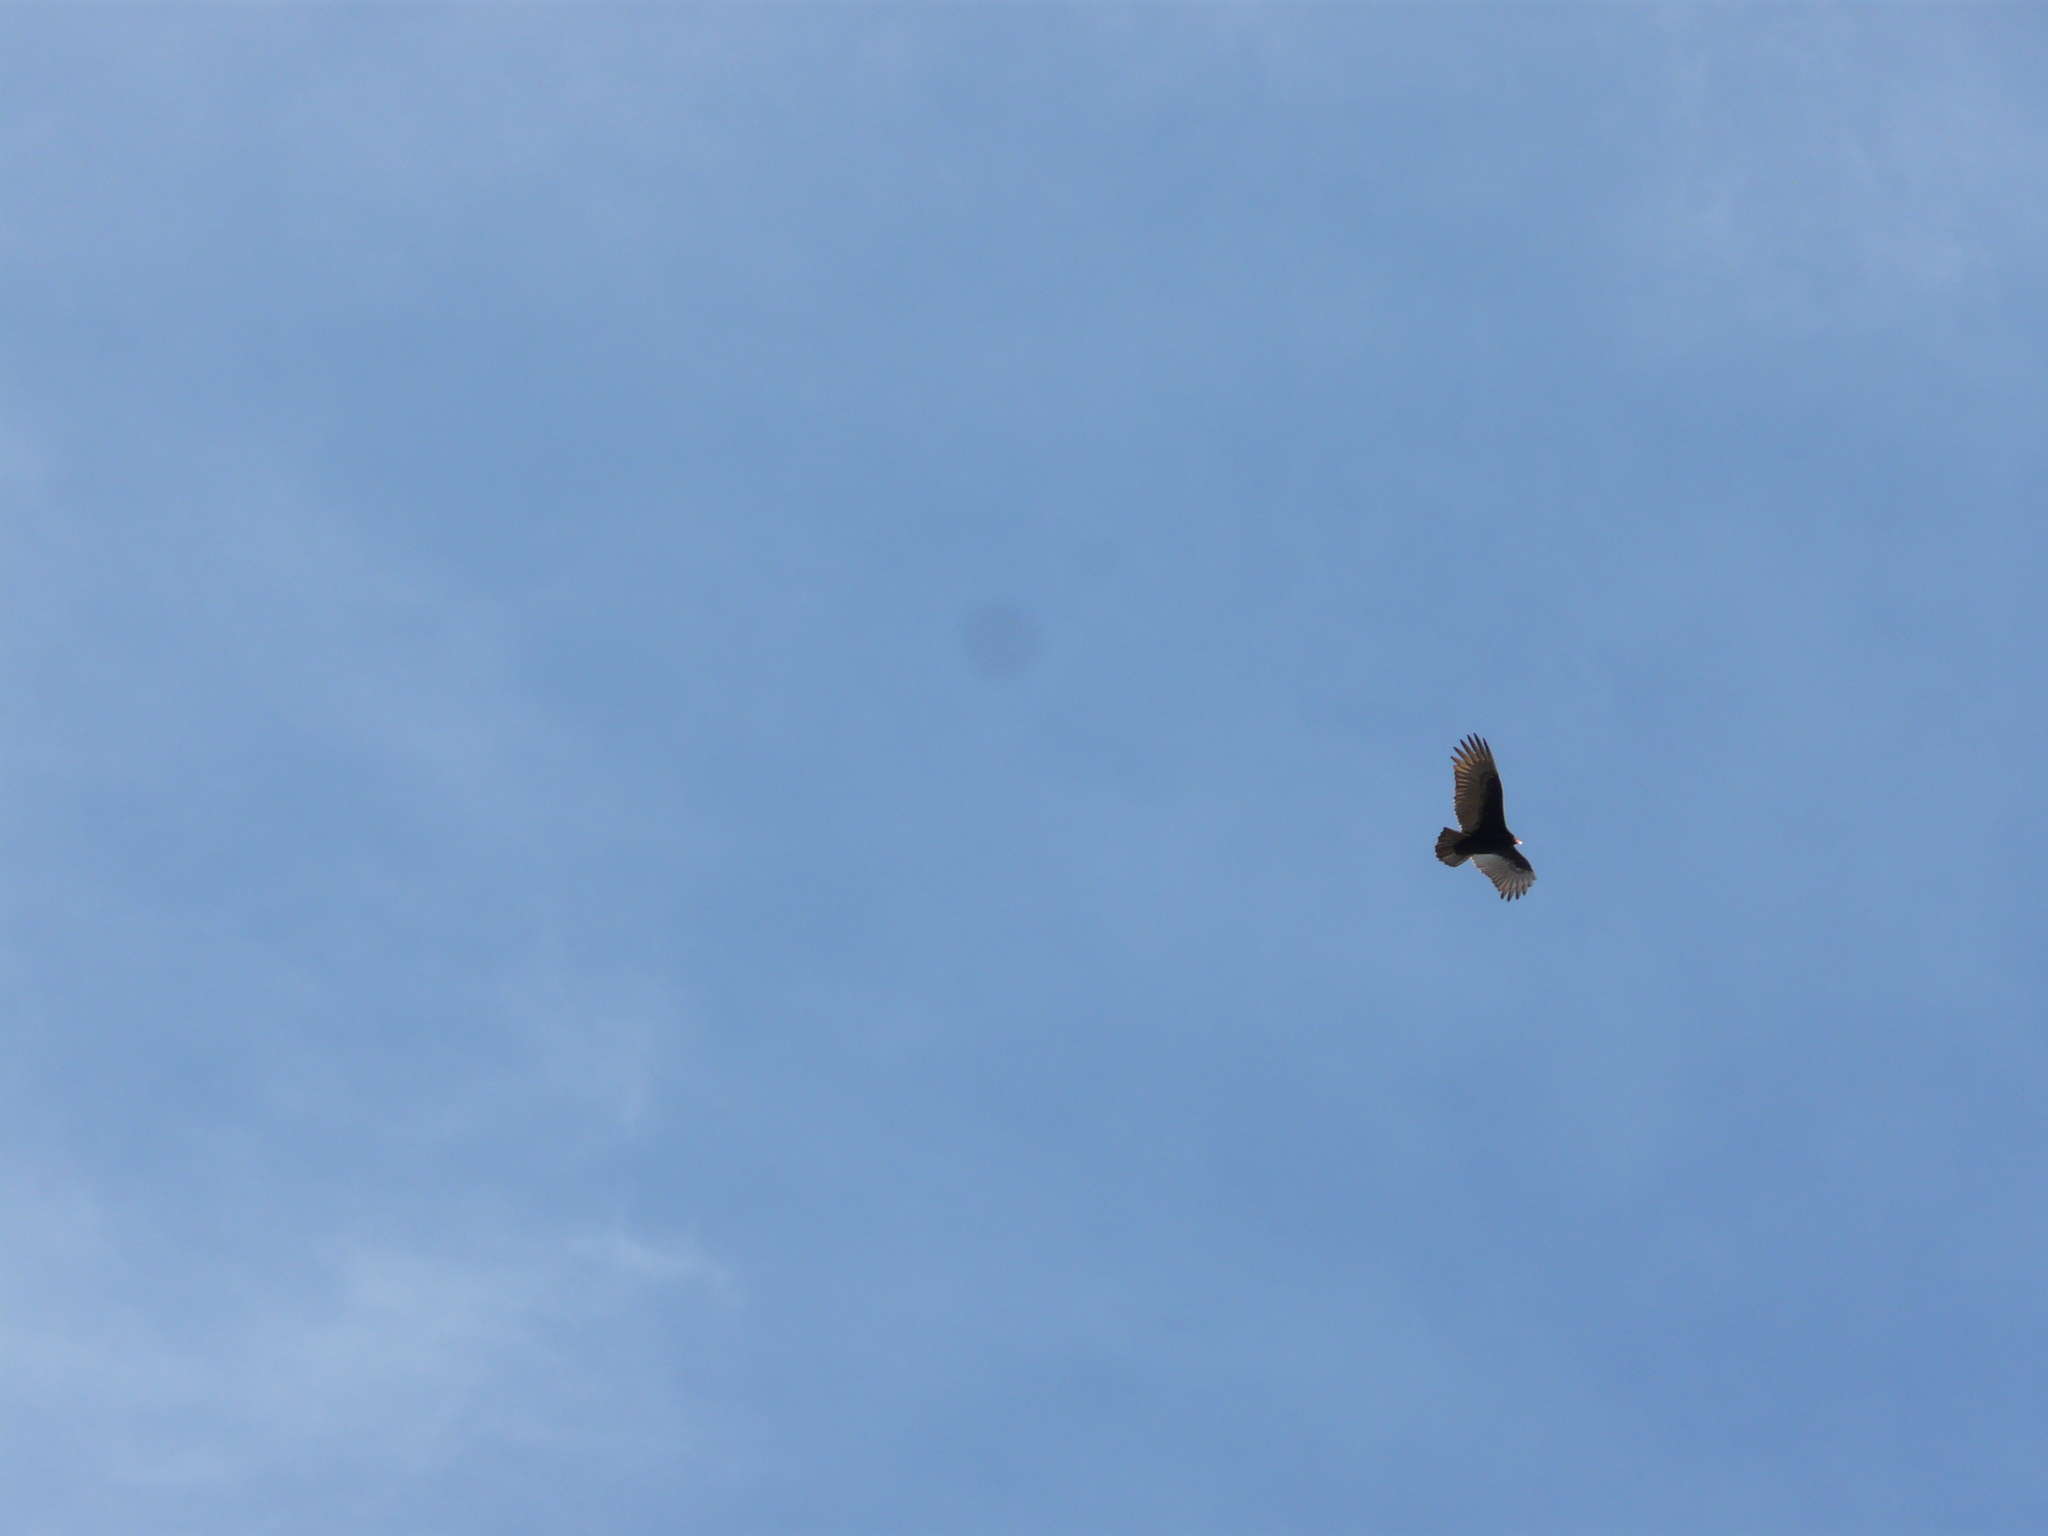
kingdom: Animalia
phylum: Chordata
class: Aves
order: Accipitriformes
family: Cathartidae
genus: Cathartes
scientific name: Cathartes aura
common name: Turkey vulture
